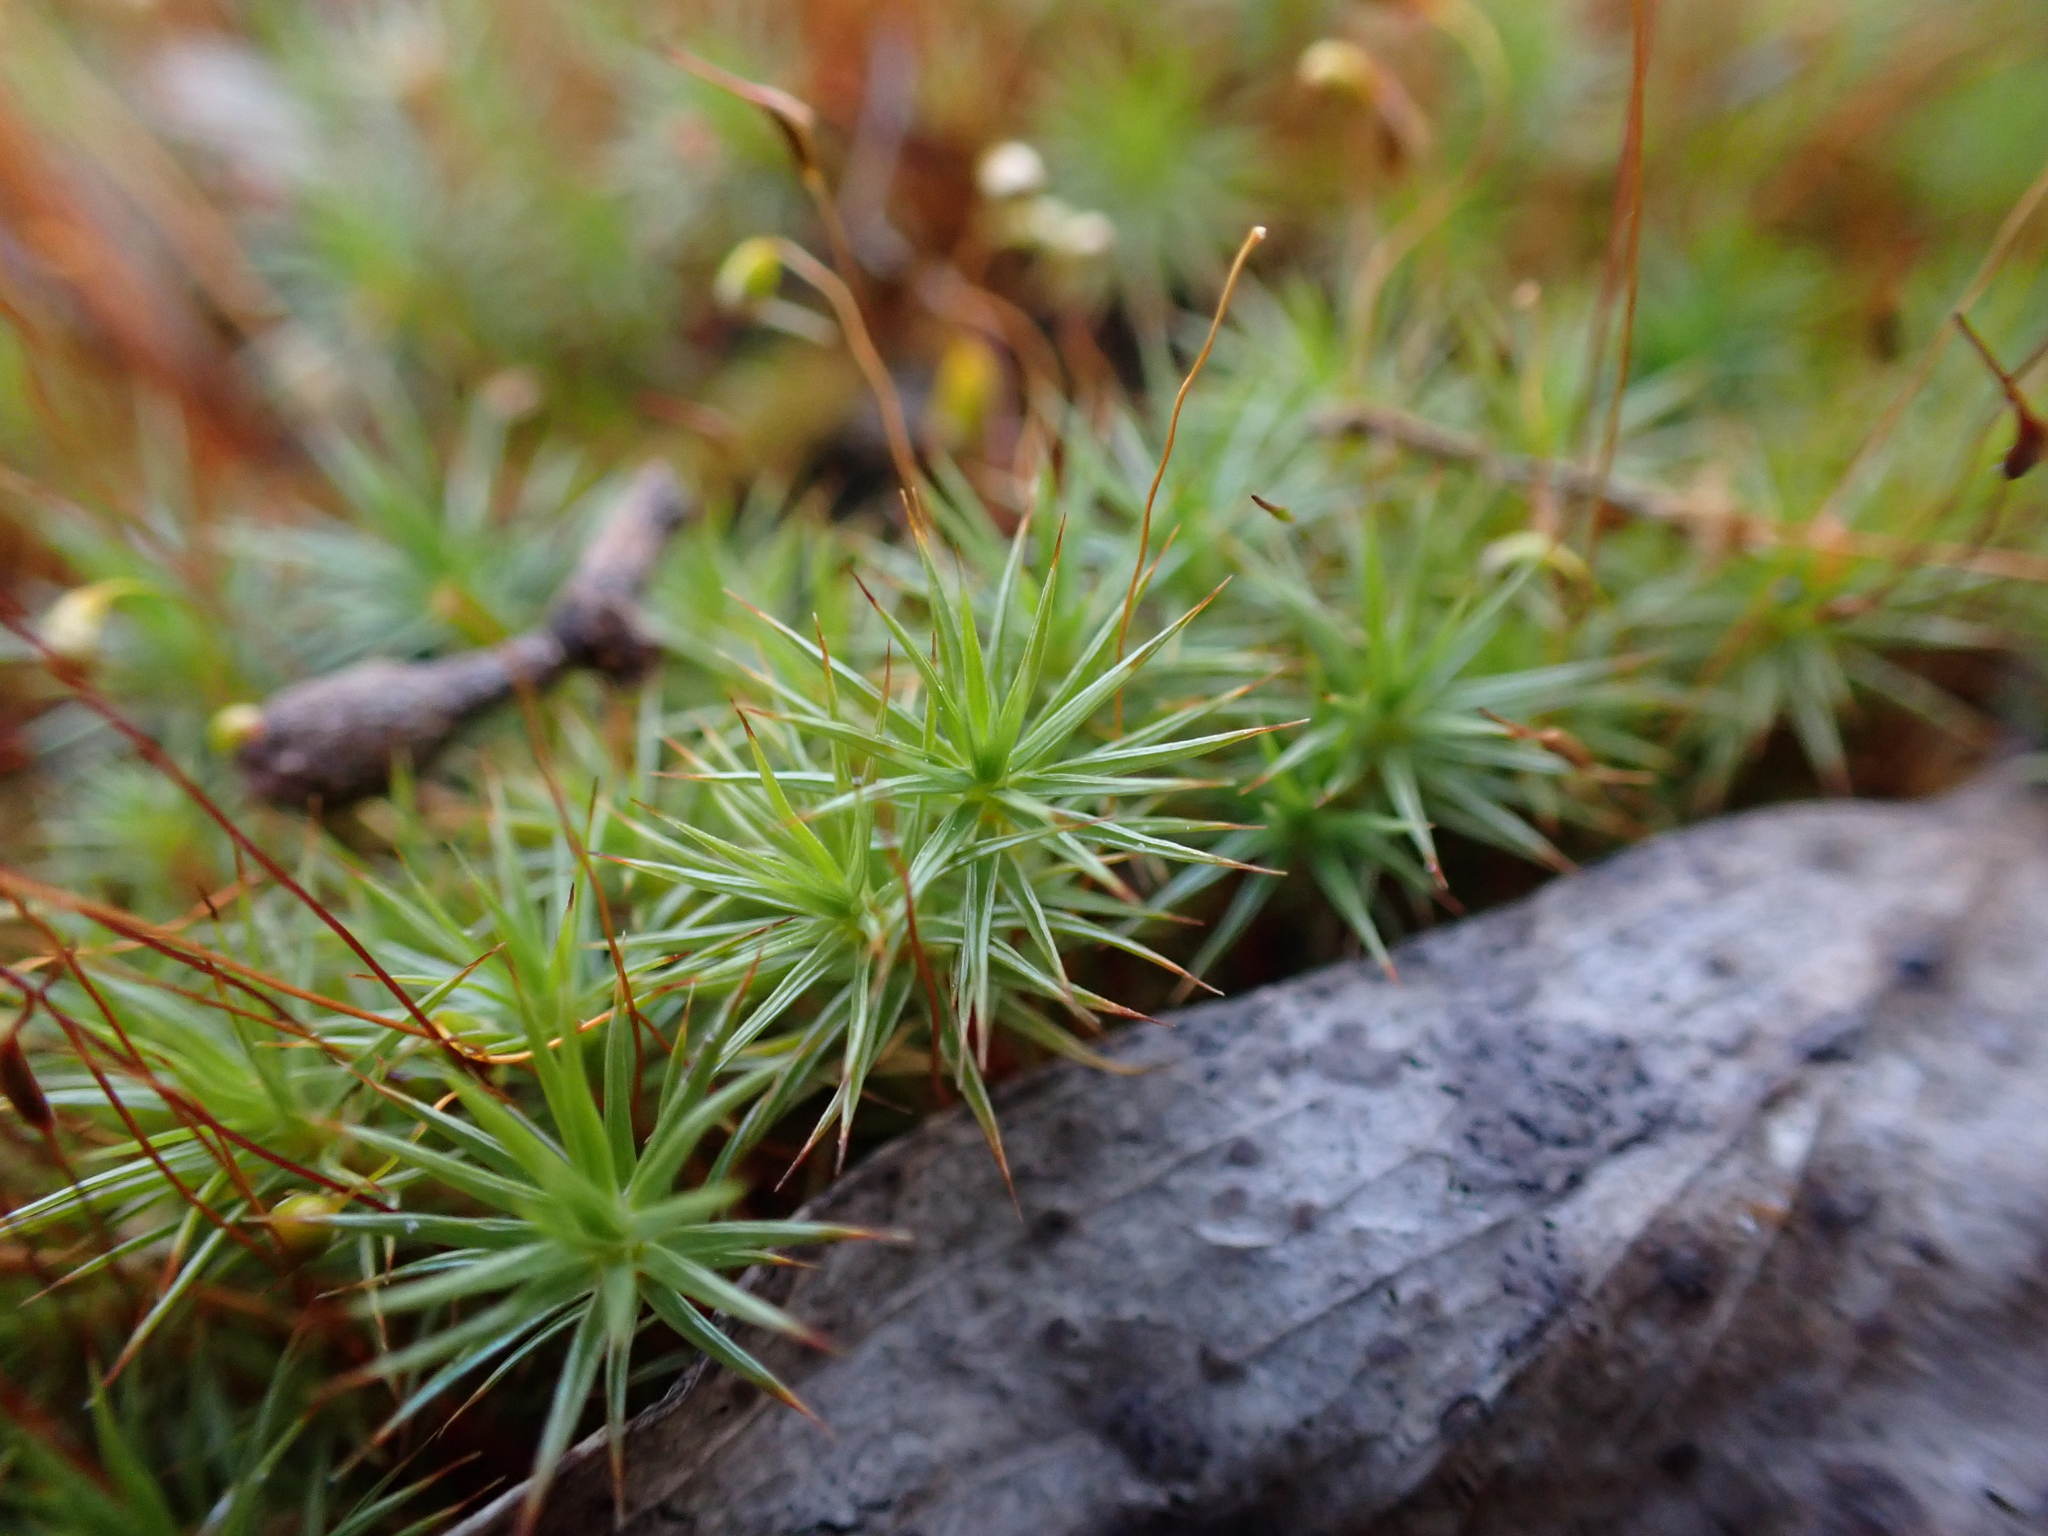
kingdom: Plantae
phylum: Bryophyta
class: Polytrichopsida
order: Polytrichales
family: Polytrichaceae
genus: Polytrichum
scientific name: Polytrichum juniperinum
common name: Juniper haircap moss
